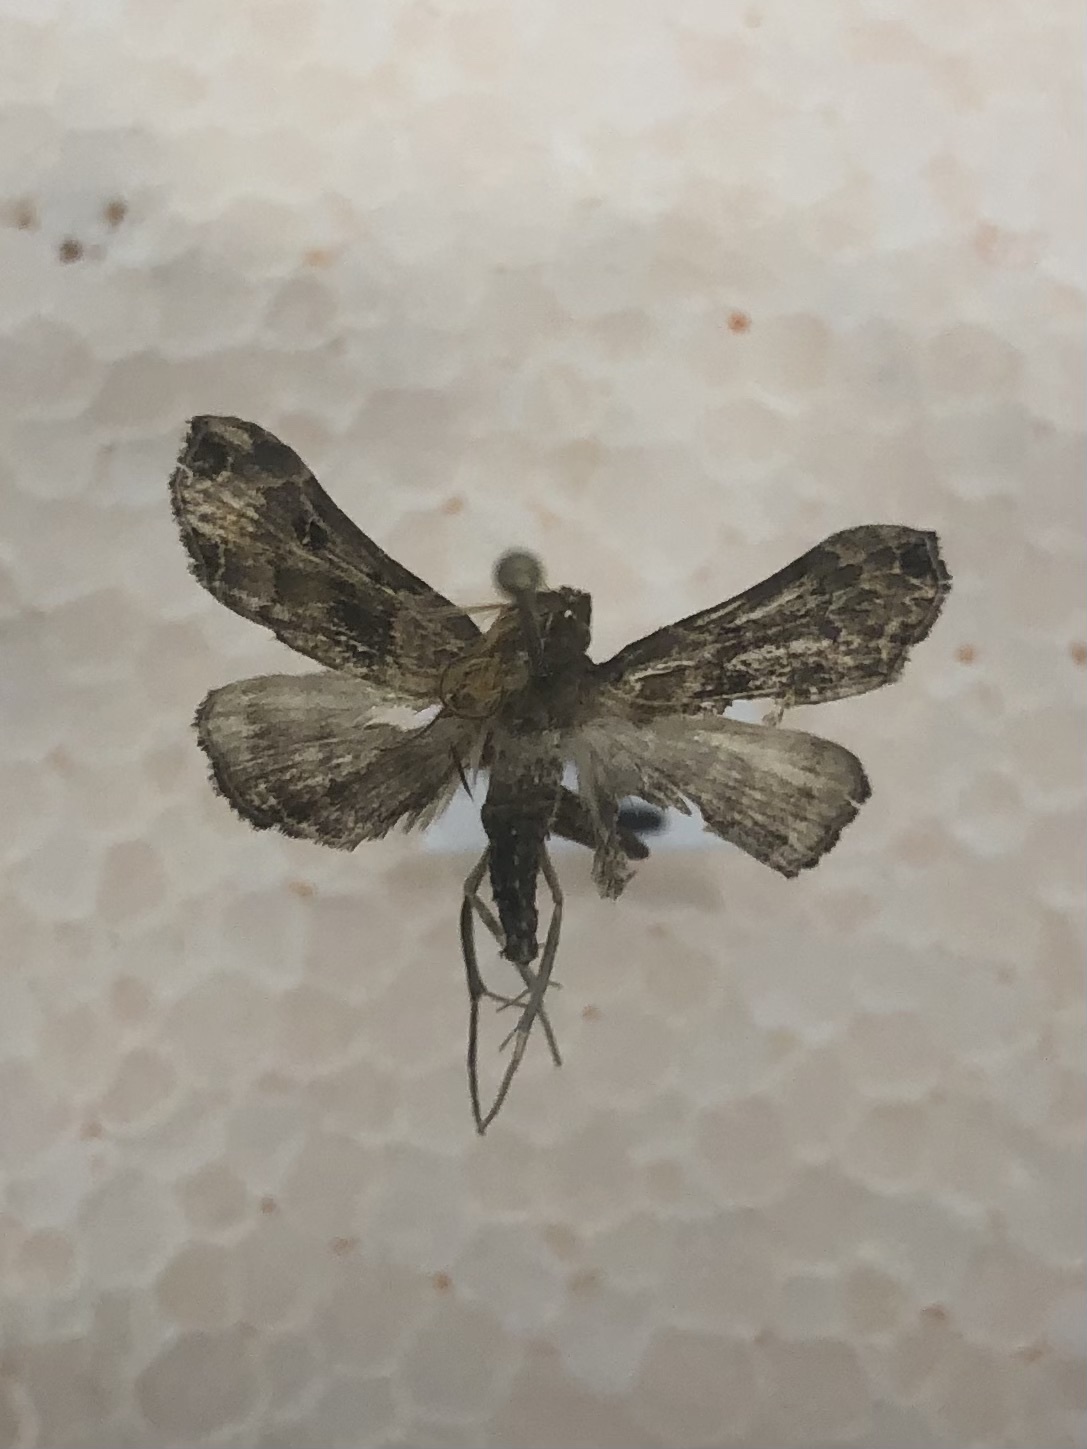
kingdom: Animalia
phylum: Arthropoda
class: Insecta
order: Lepidoptera
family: Erebidae
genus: Palthis
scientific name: Palthis asopialis
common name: Faint-spotted palthis moth
